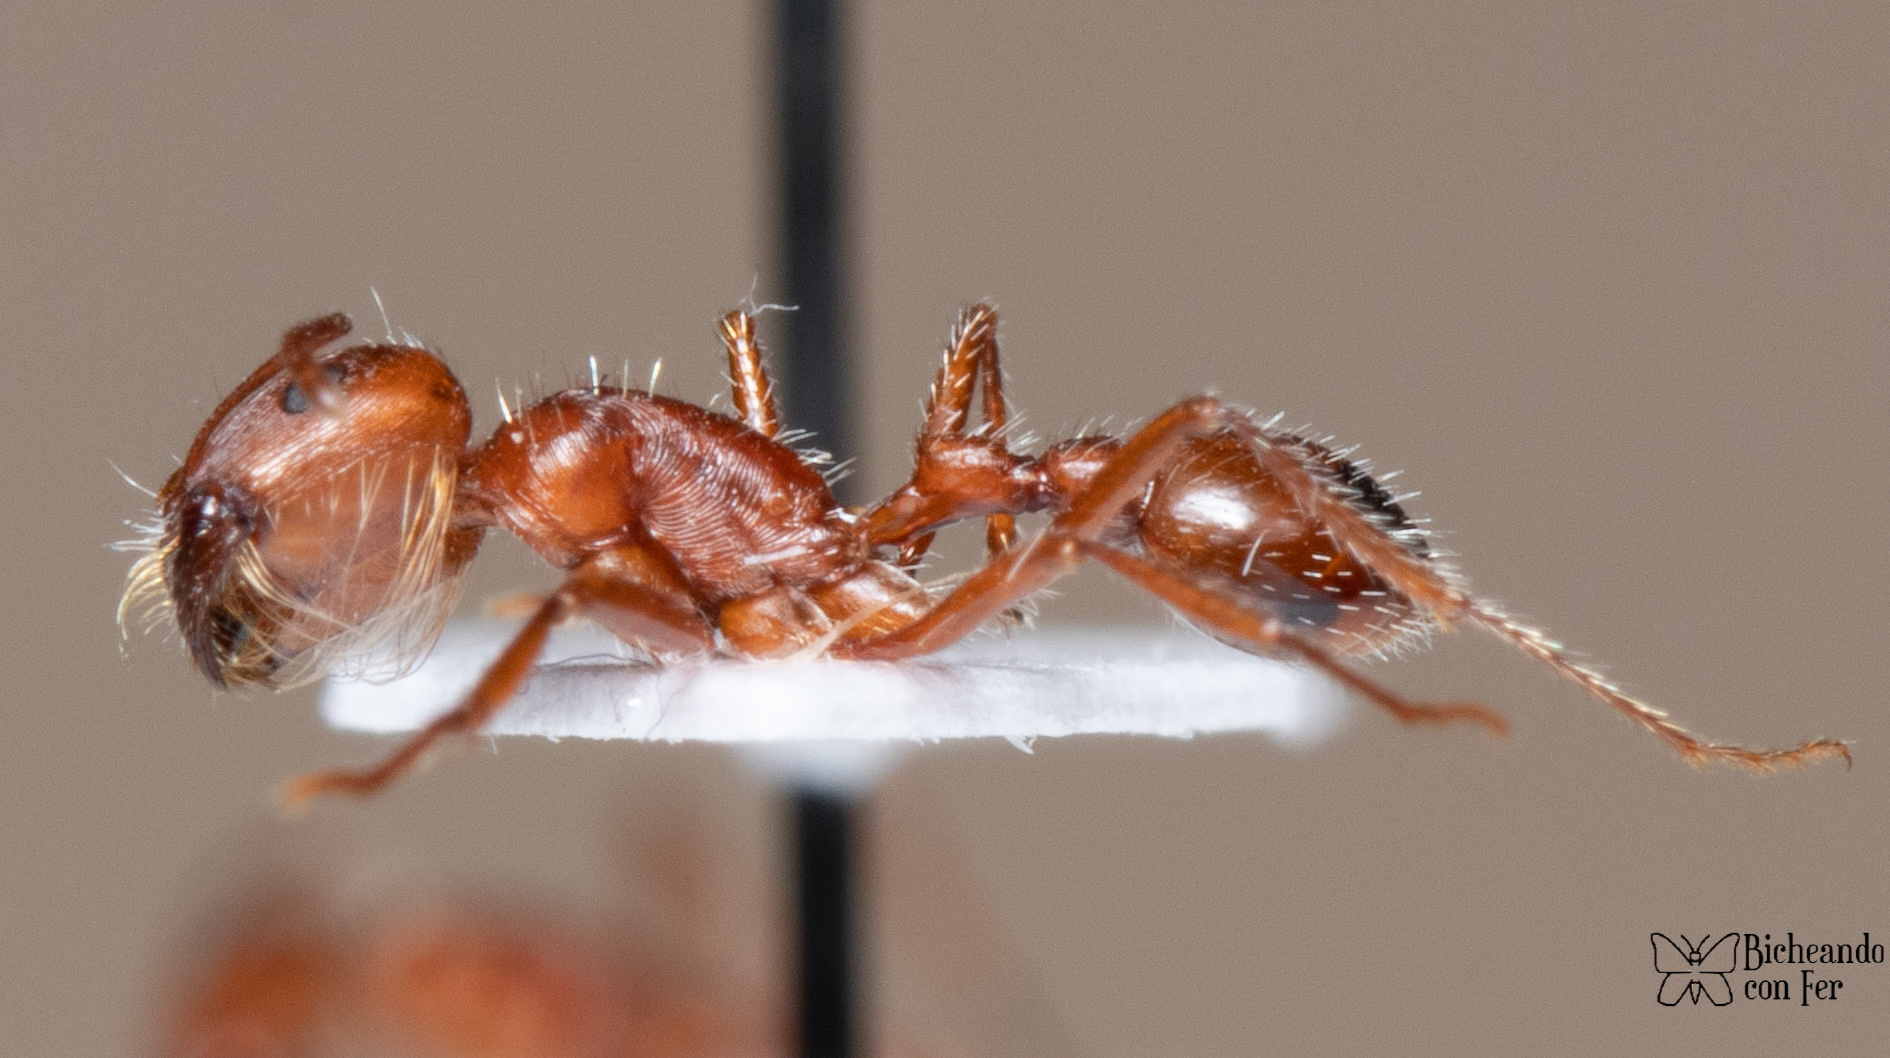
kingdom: Animalia
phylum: Arthropoda
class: Insecta
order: Hymenoptera
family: Formicidae
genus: Pogonomyrmex
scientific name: Pogonomyrmex maricopa
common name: Maricopa harvester ant
